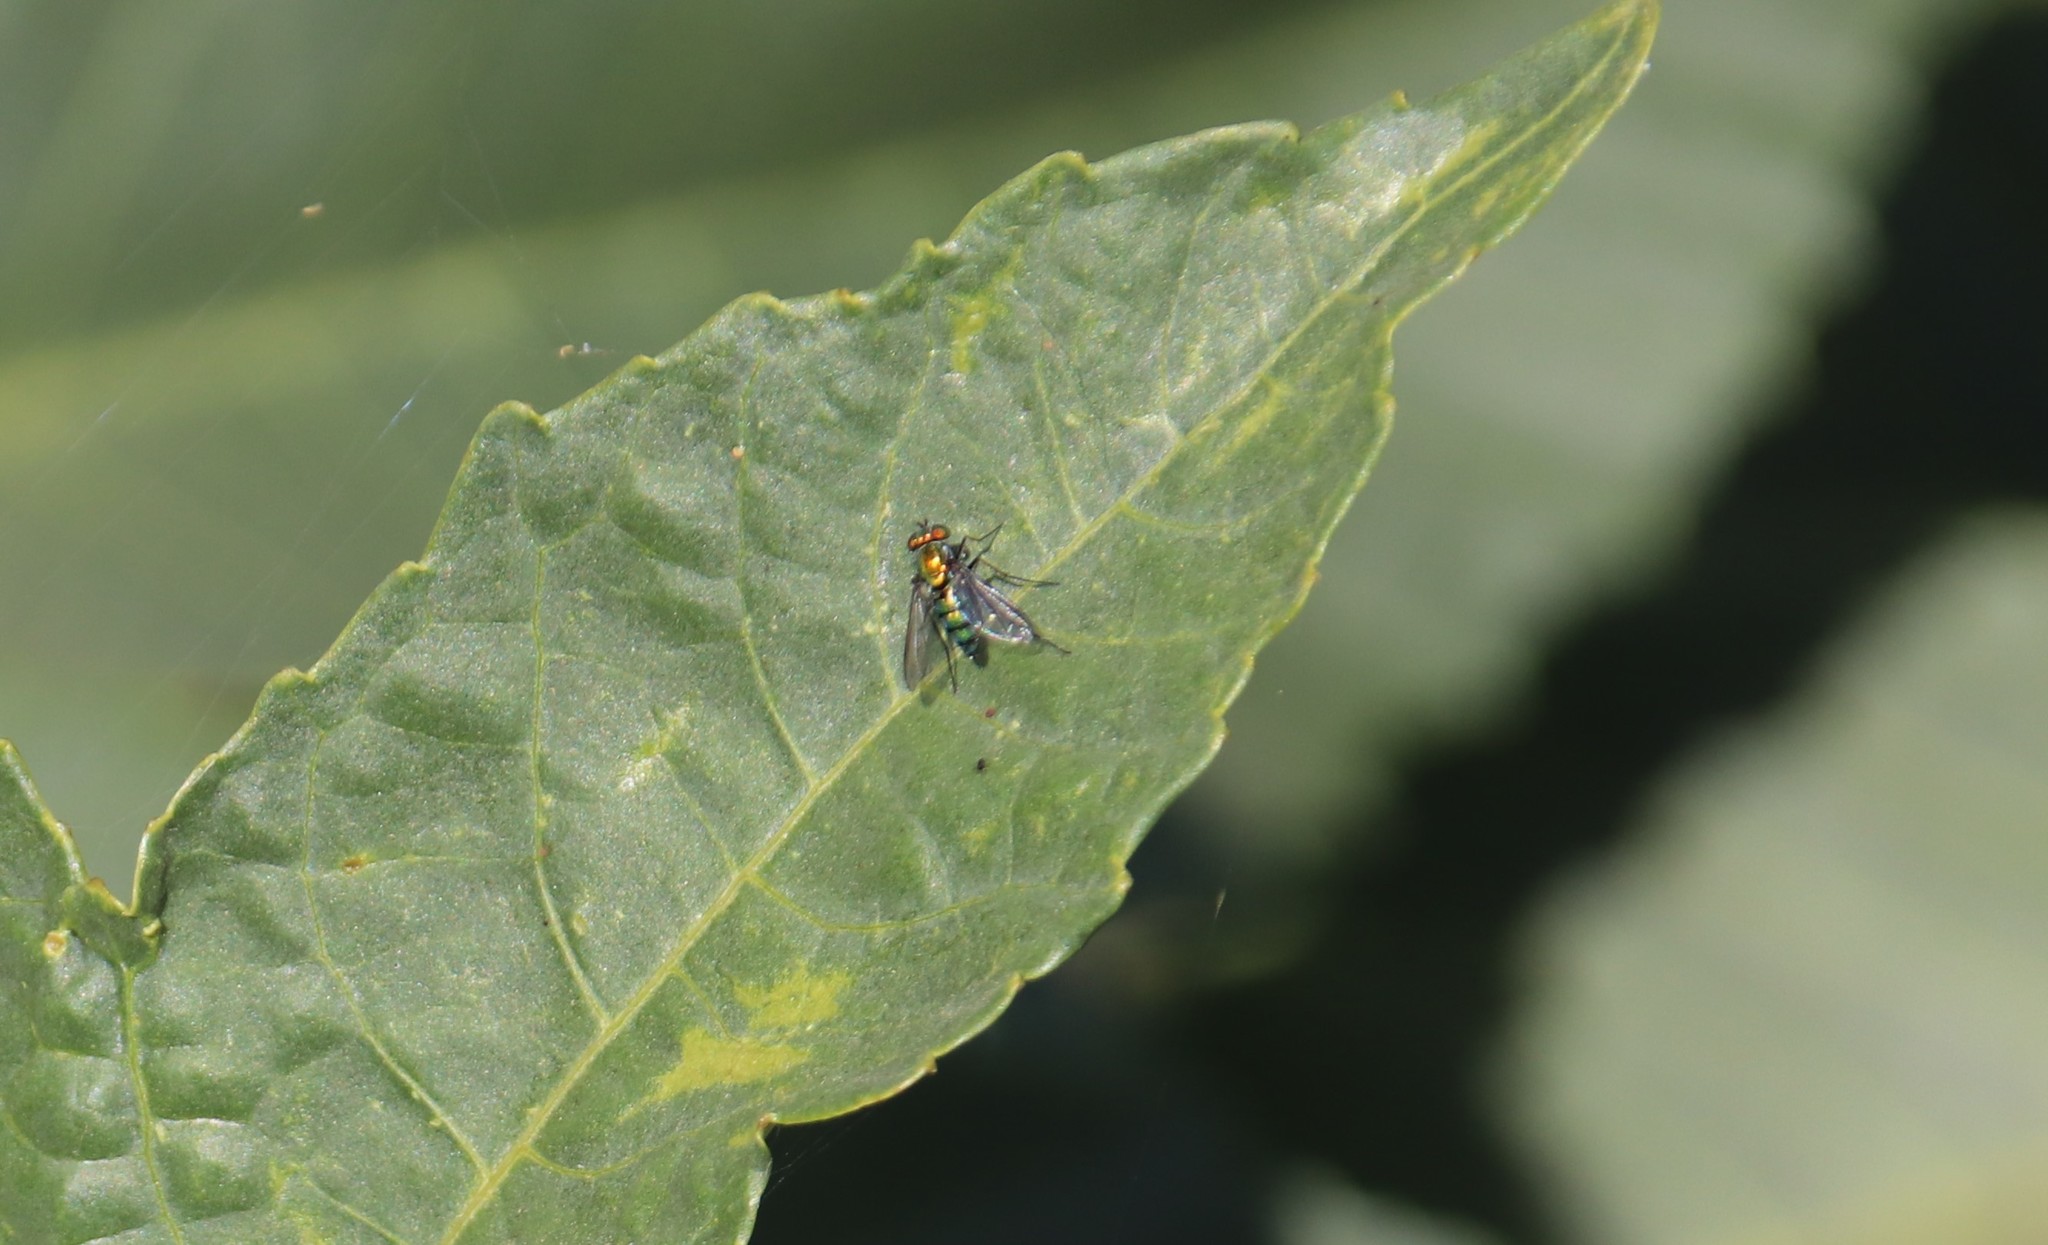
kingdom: Animalia
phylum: Arthropoda
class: Insecta
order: Diptera
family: Dolichopodidae
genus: Condylostylus
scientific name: Condylostylus longicornis
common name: Long-legged fly
